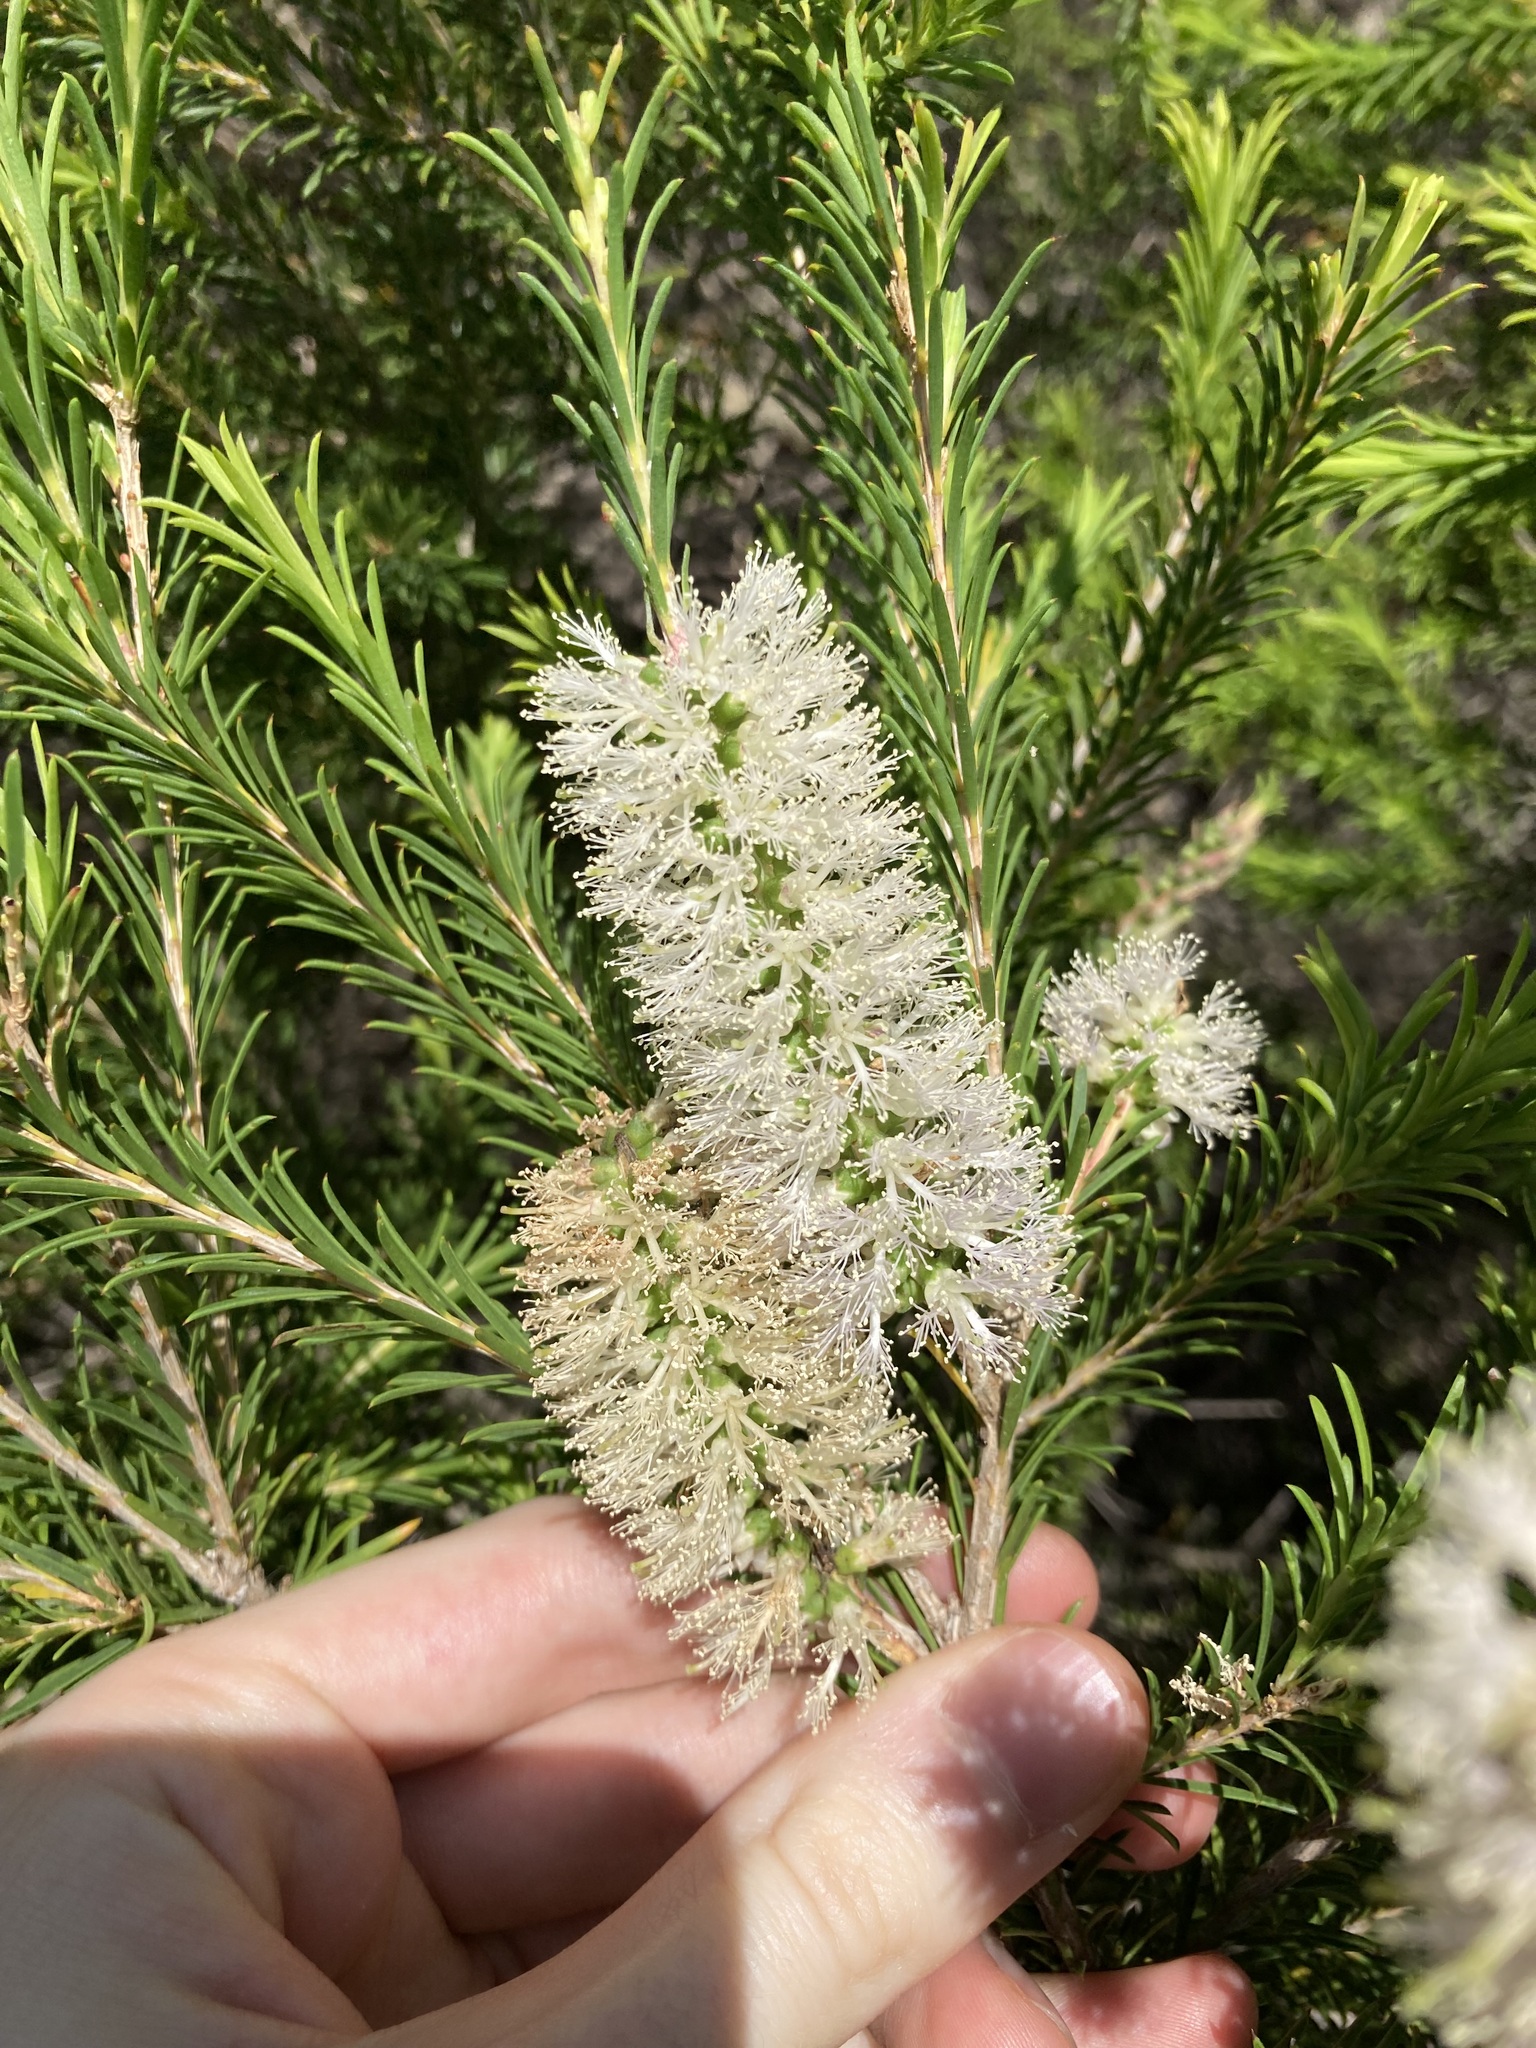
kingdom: Plantae
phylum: Tracheophyta
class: Magnoliopsida
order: Myrtales
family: Myrtaceae
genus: Melaleuca
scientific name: Melaleuca armillaris
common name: Bracelet honey myrtle
